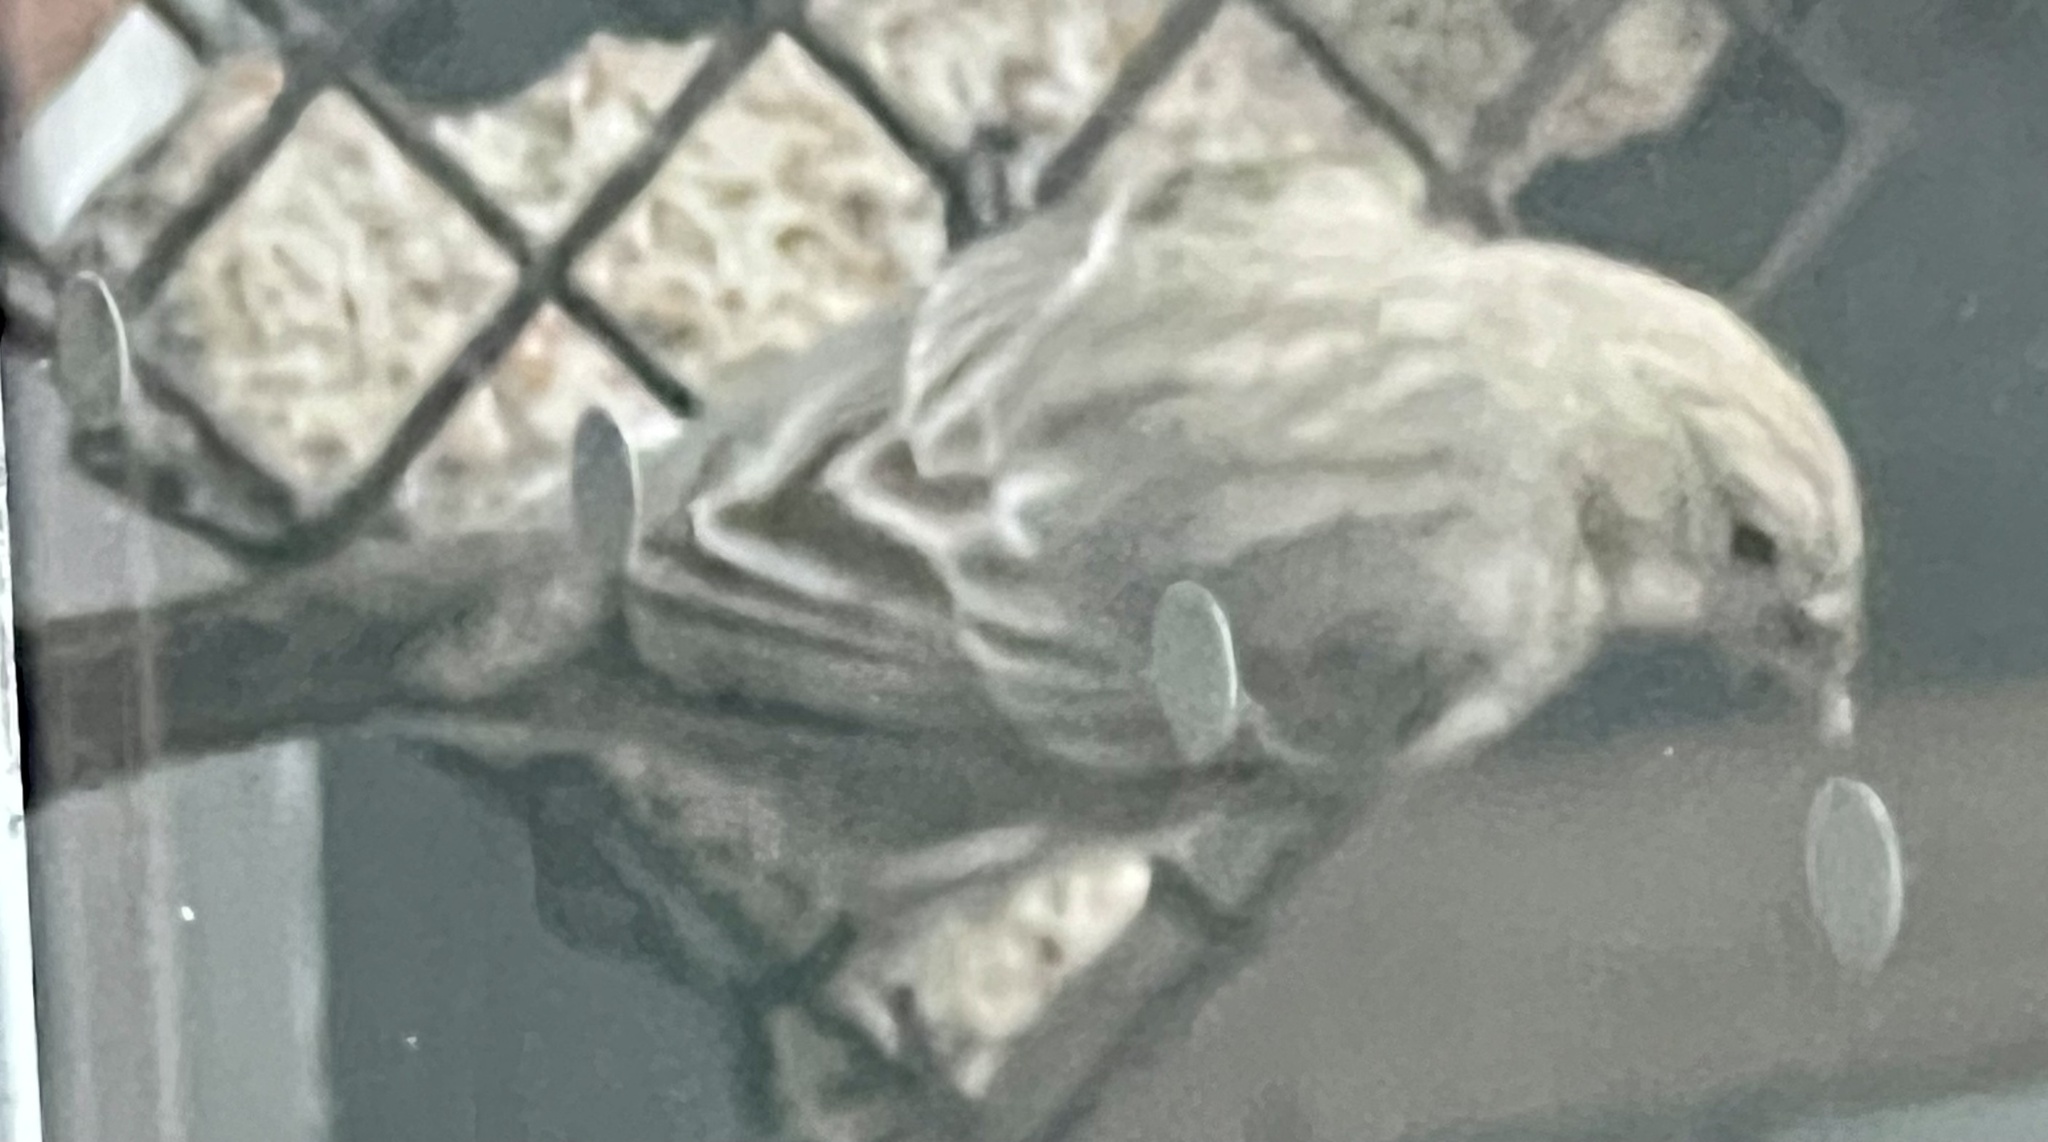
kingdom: Animalia
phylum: Chordata
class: Aves
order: Passeriformes
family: Fringillidae
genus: Haemorhous
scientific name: Haemorhous mexicanus
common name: House finch
